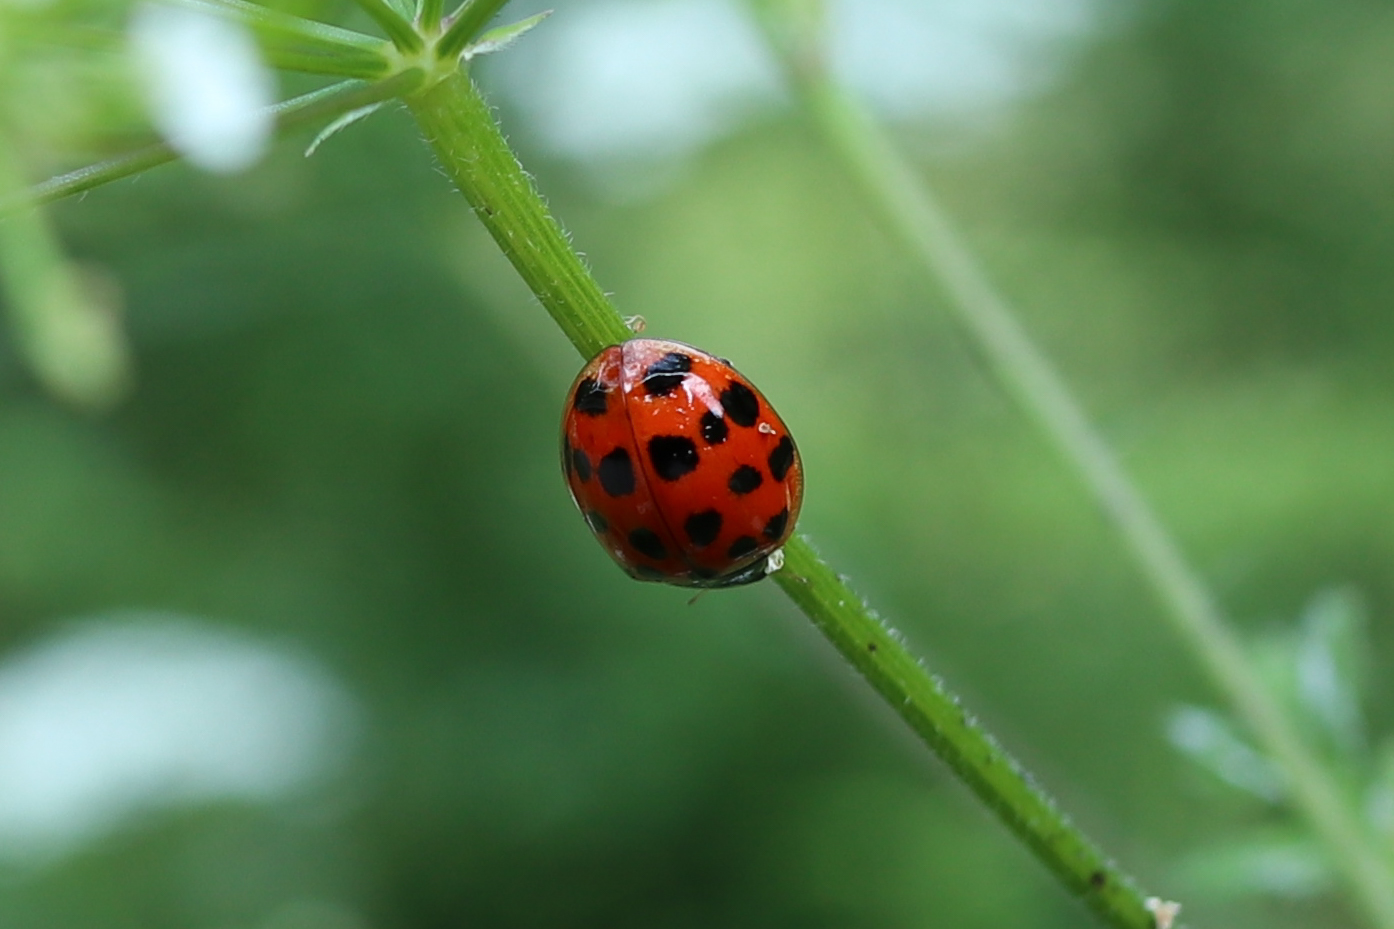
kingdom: Animalia
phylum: Arthropoda
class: Insecta
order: Coleoptera
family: Coccinellidae
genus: Harmonia
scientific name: Harmonia axyridis
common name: Harlequin ladybird
